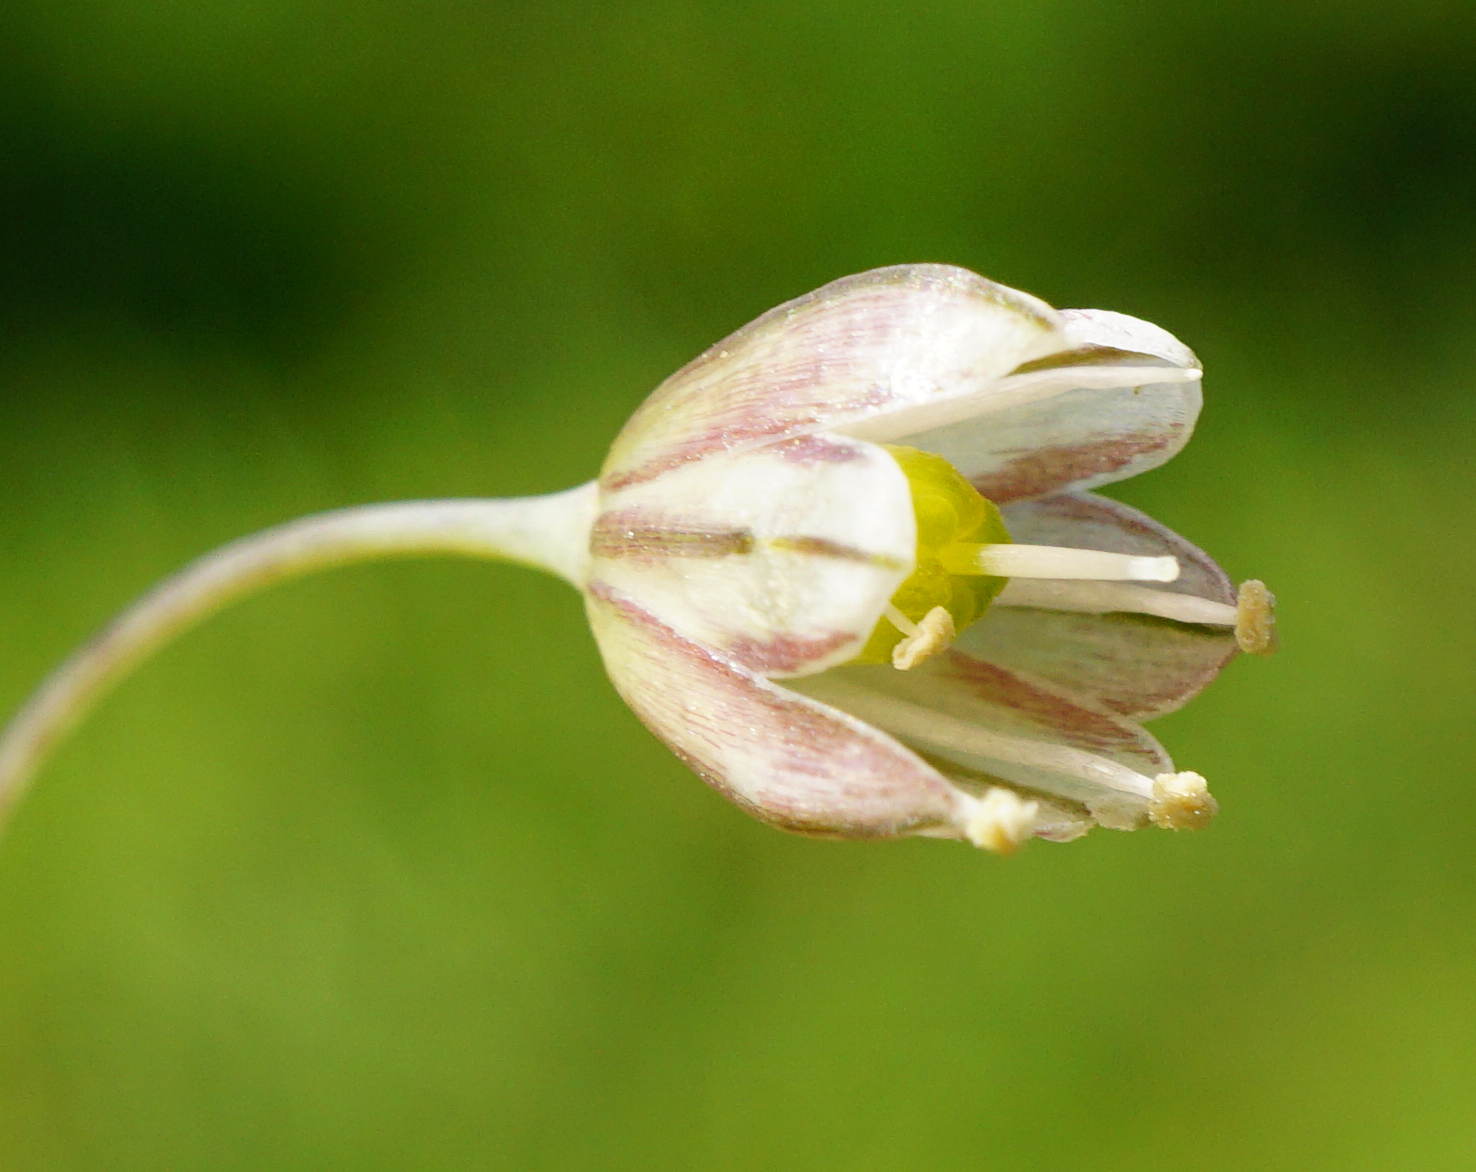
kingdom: Plantae
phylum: Tracheophyta
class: Liliopsida
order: Asparagales
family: Amaryllidaceae
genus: Allium
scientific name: Allium oleraceum
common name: Field garlic
